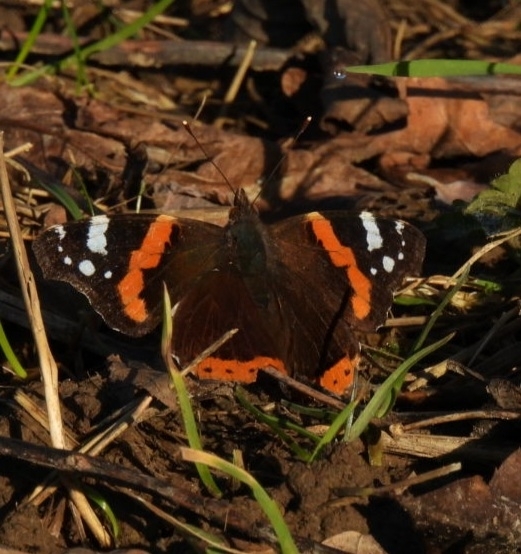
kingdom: Animalia
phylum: Arthropoda
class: Insecta
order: Lepidoptera
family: Nymphalidae
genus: Vanessa
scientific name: Vanessa atalanta
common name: Red admiral
